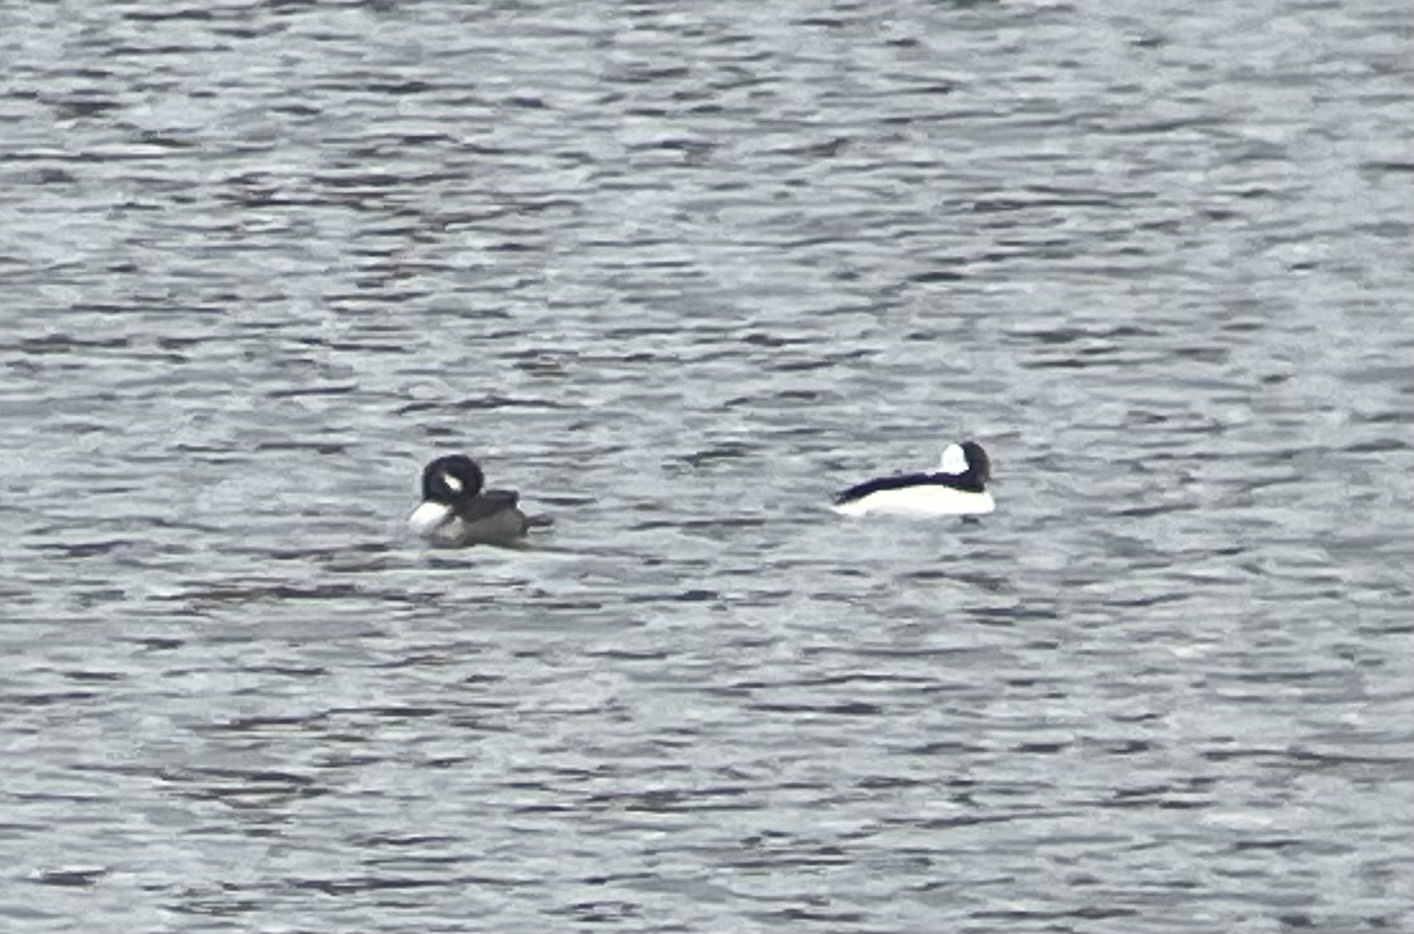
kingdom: Animalia
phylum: Chordata
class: Aves
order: Anseriformes
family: Anatidae
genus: Bucephala
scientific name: Bucephala albeola
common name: Bufflehead
